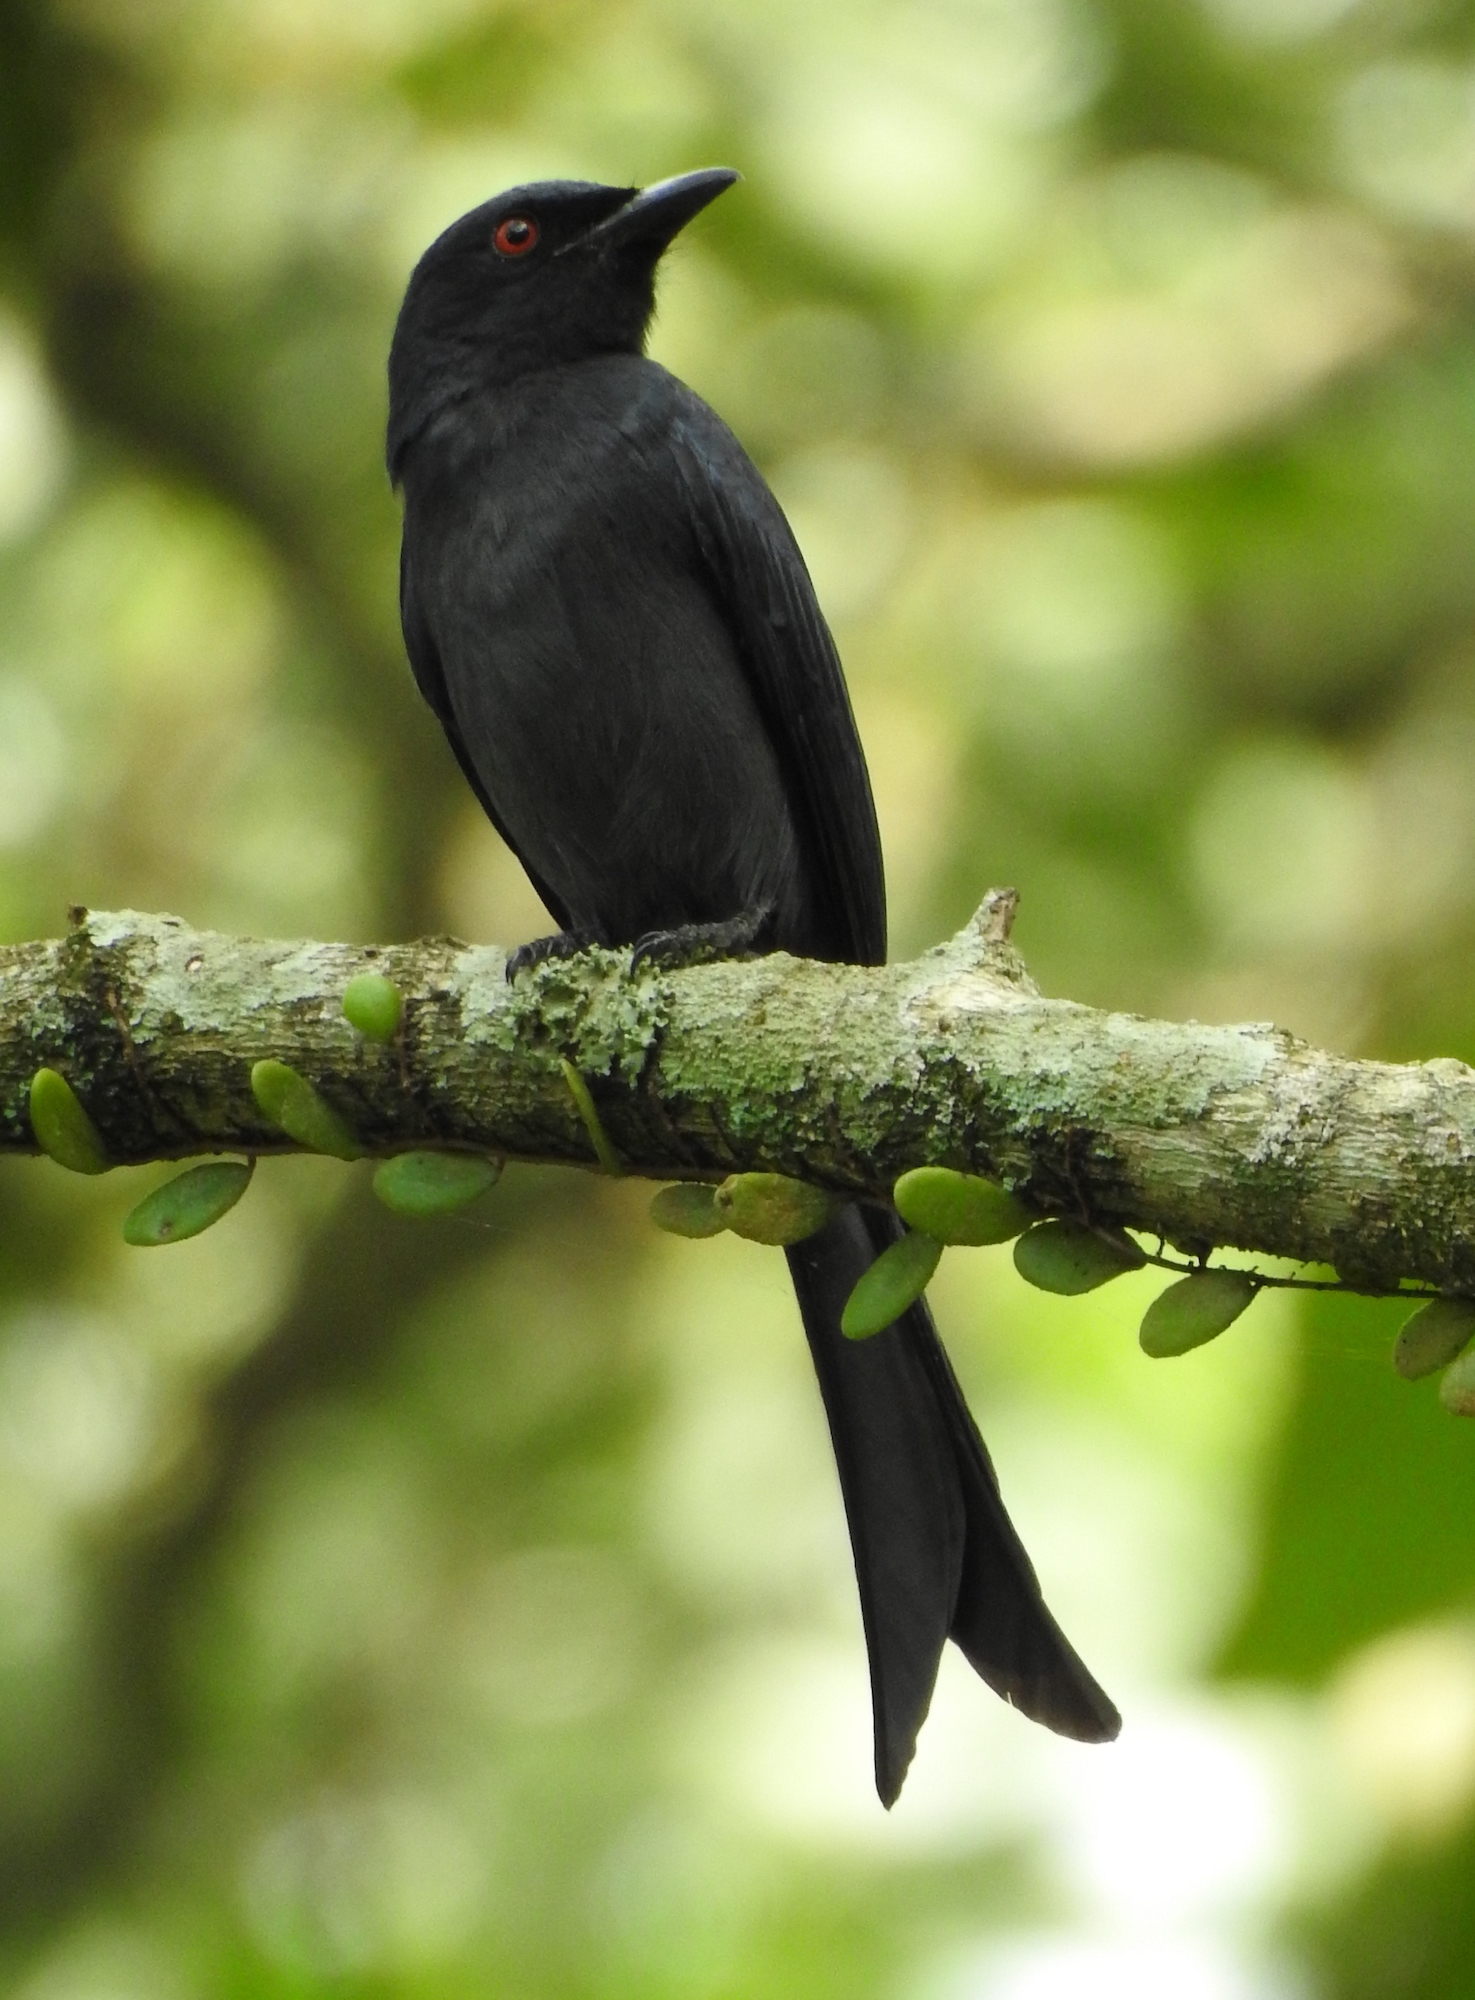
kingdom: Animalia
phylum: Chordata
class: Aves
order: Passeriformes
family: Dicruridae
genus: Dicrurus
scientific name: Dicrurus leucophaeus
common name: Ashy drongo
